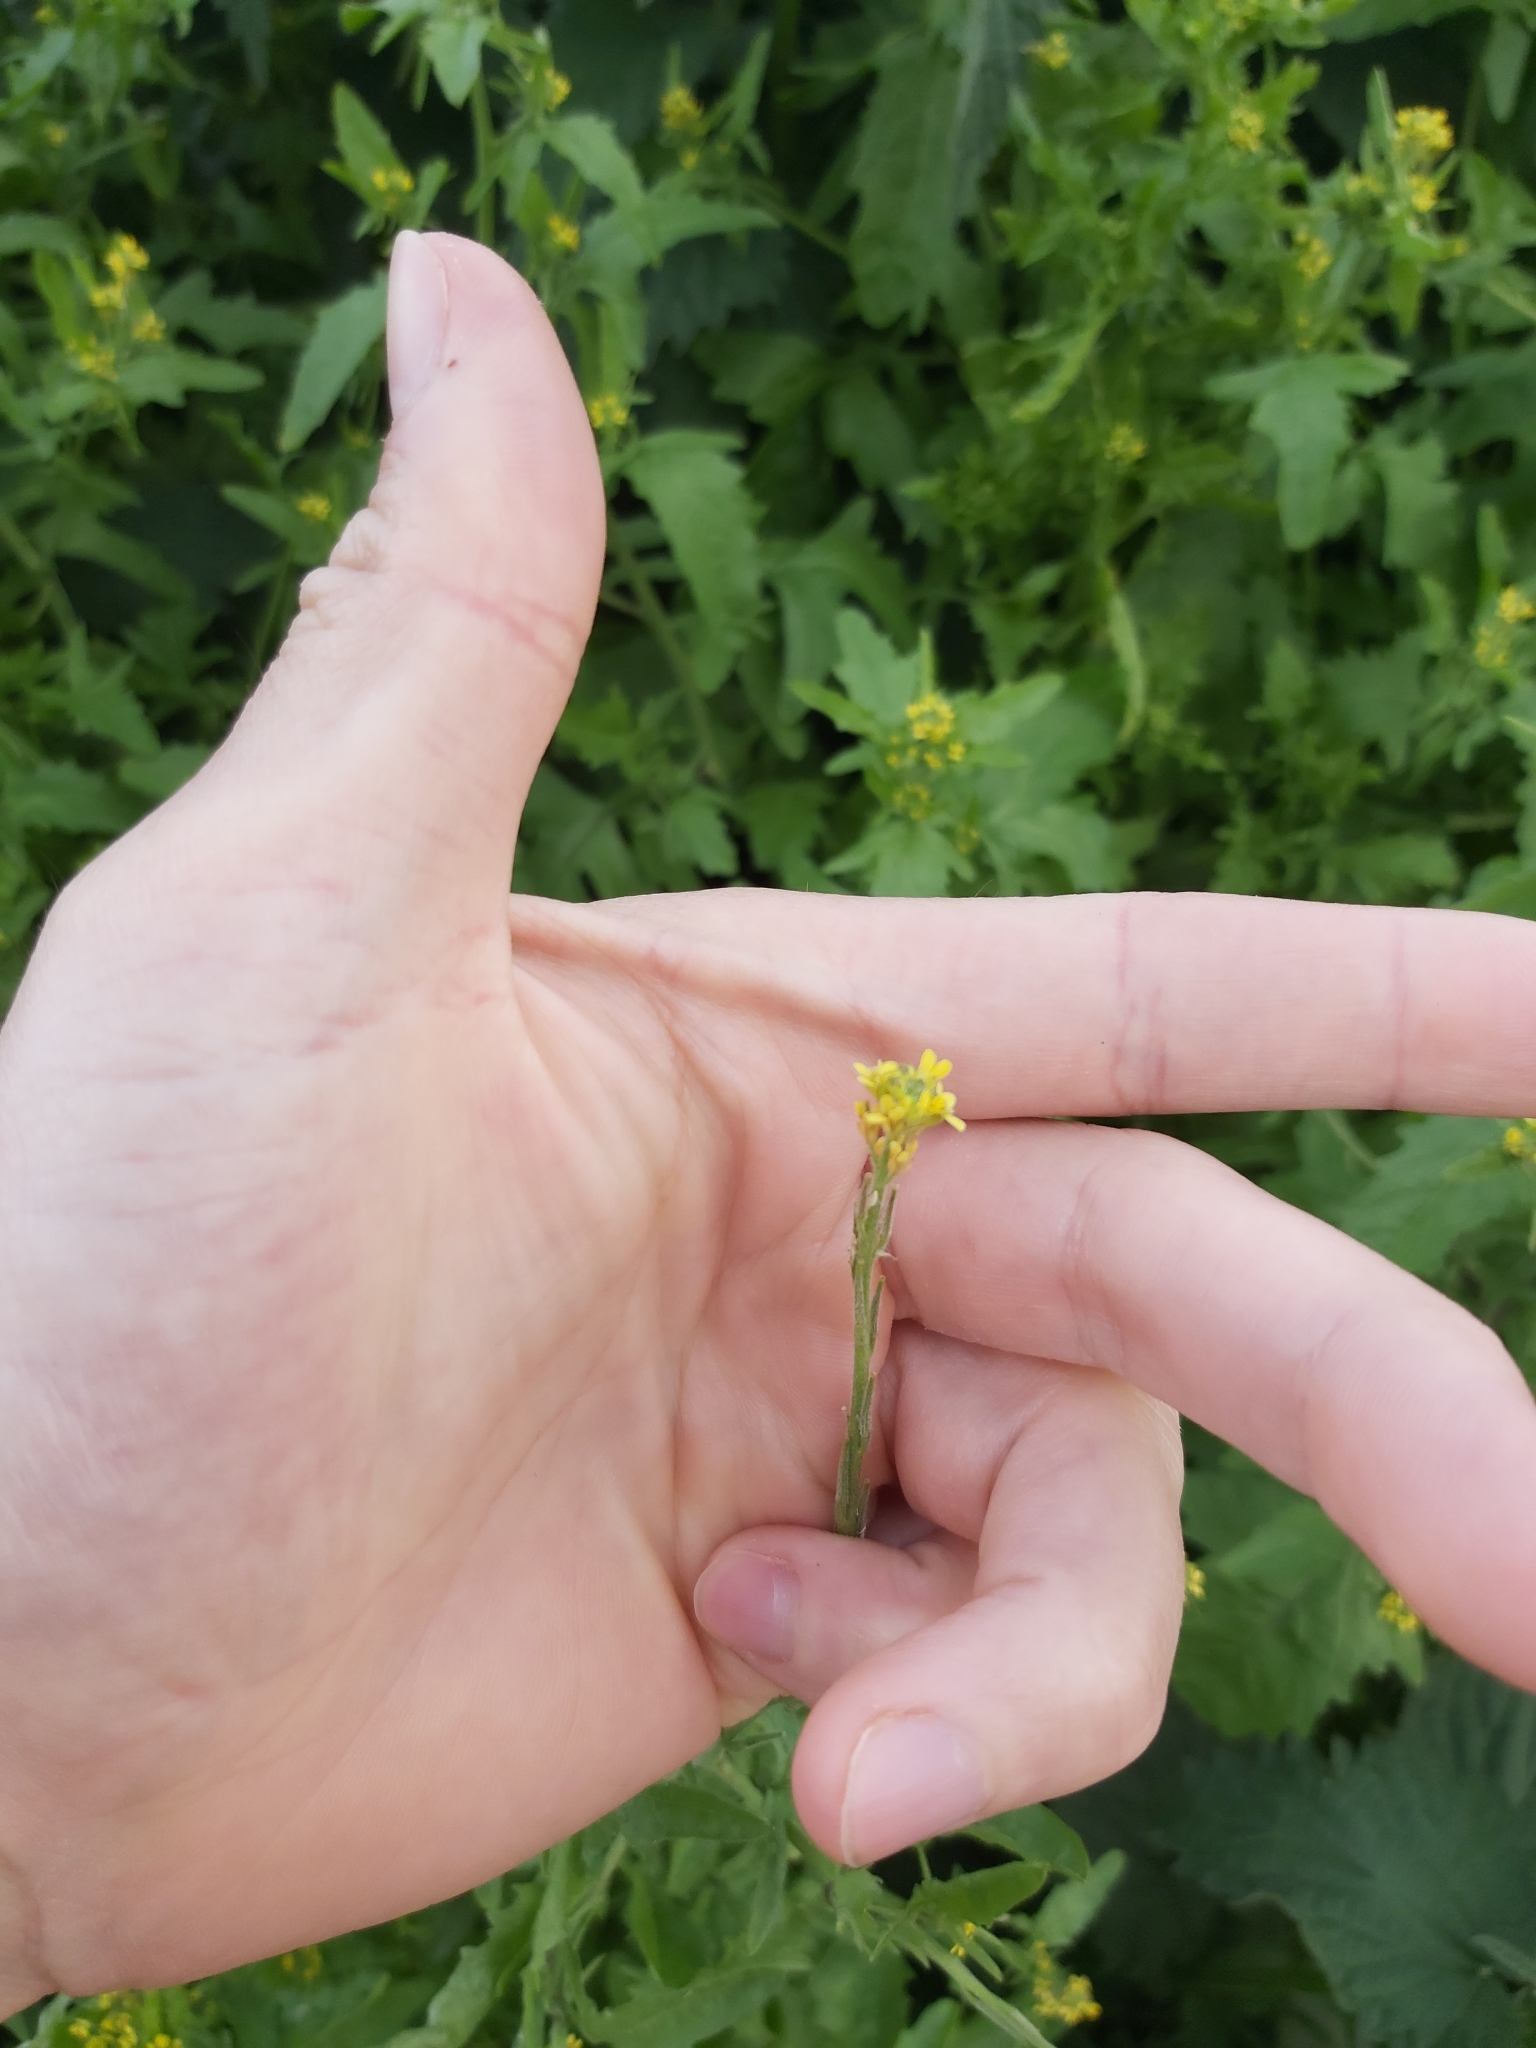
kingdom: Plantae
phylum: Tracheophyta
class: Magnoliopsida
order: Brassicales
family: Brassicaceae
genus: Sisymbrium
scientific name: Sisymbrium officinale
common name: Hedge mustard
